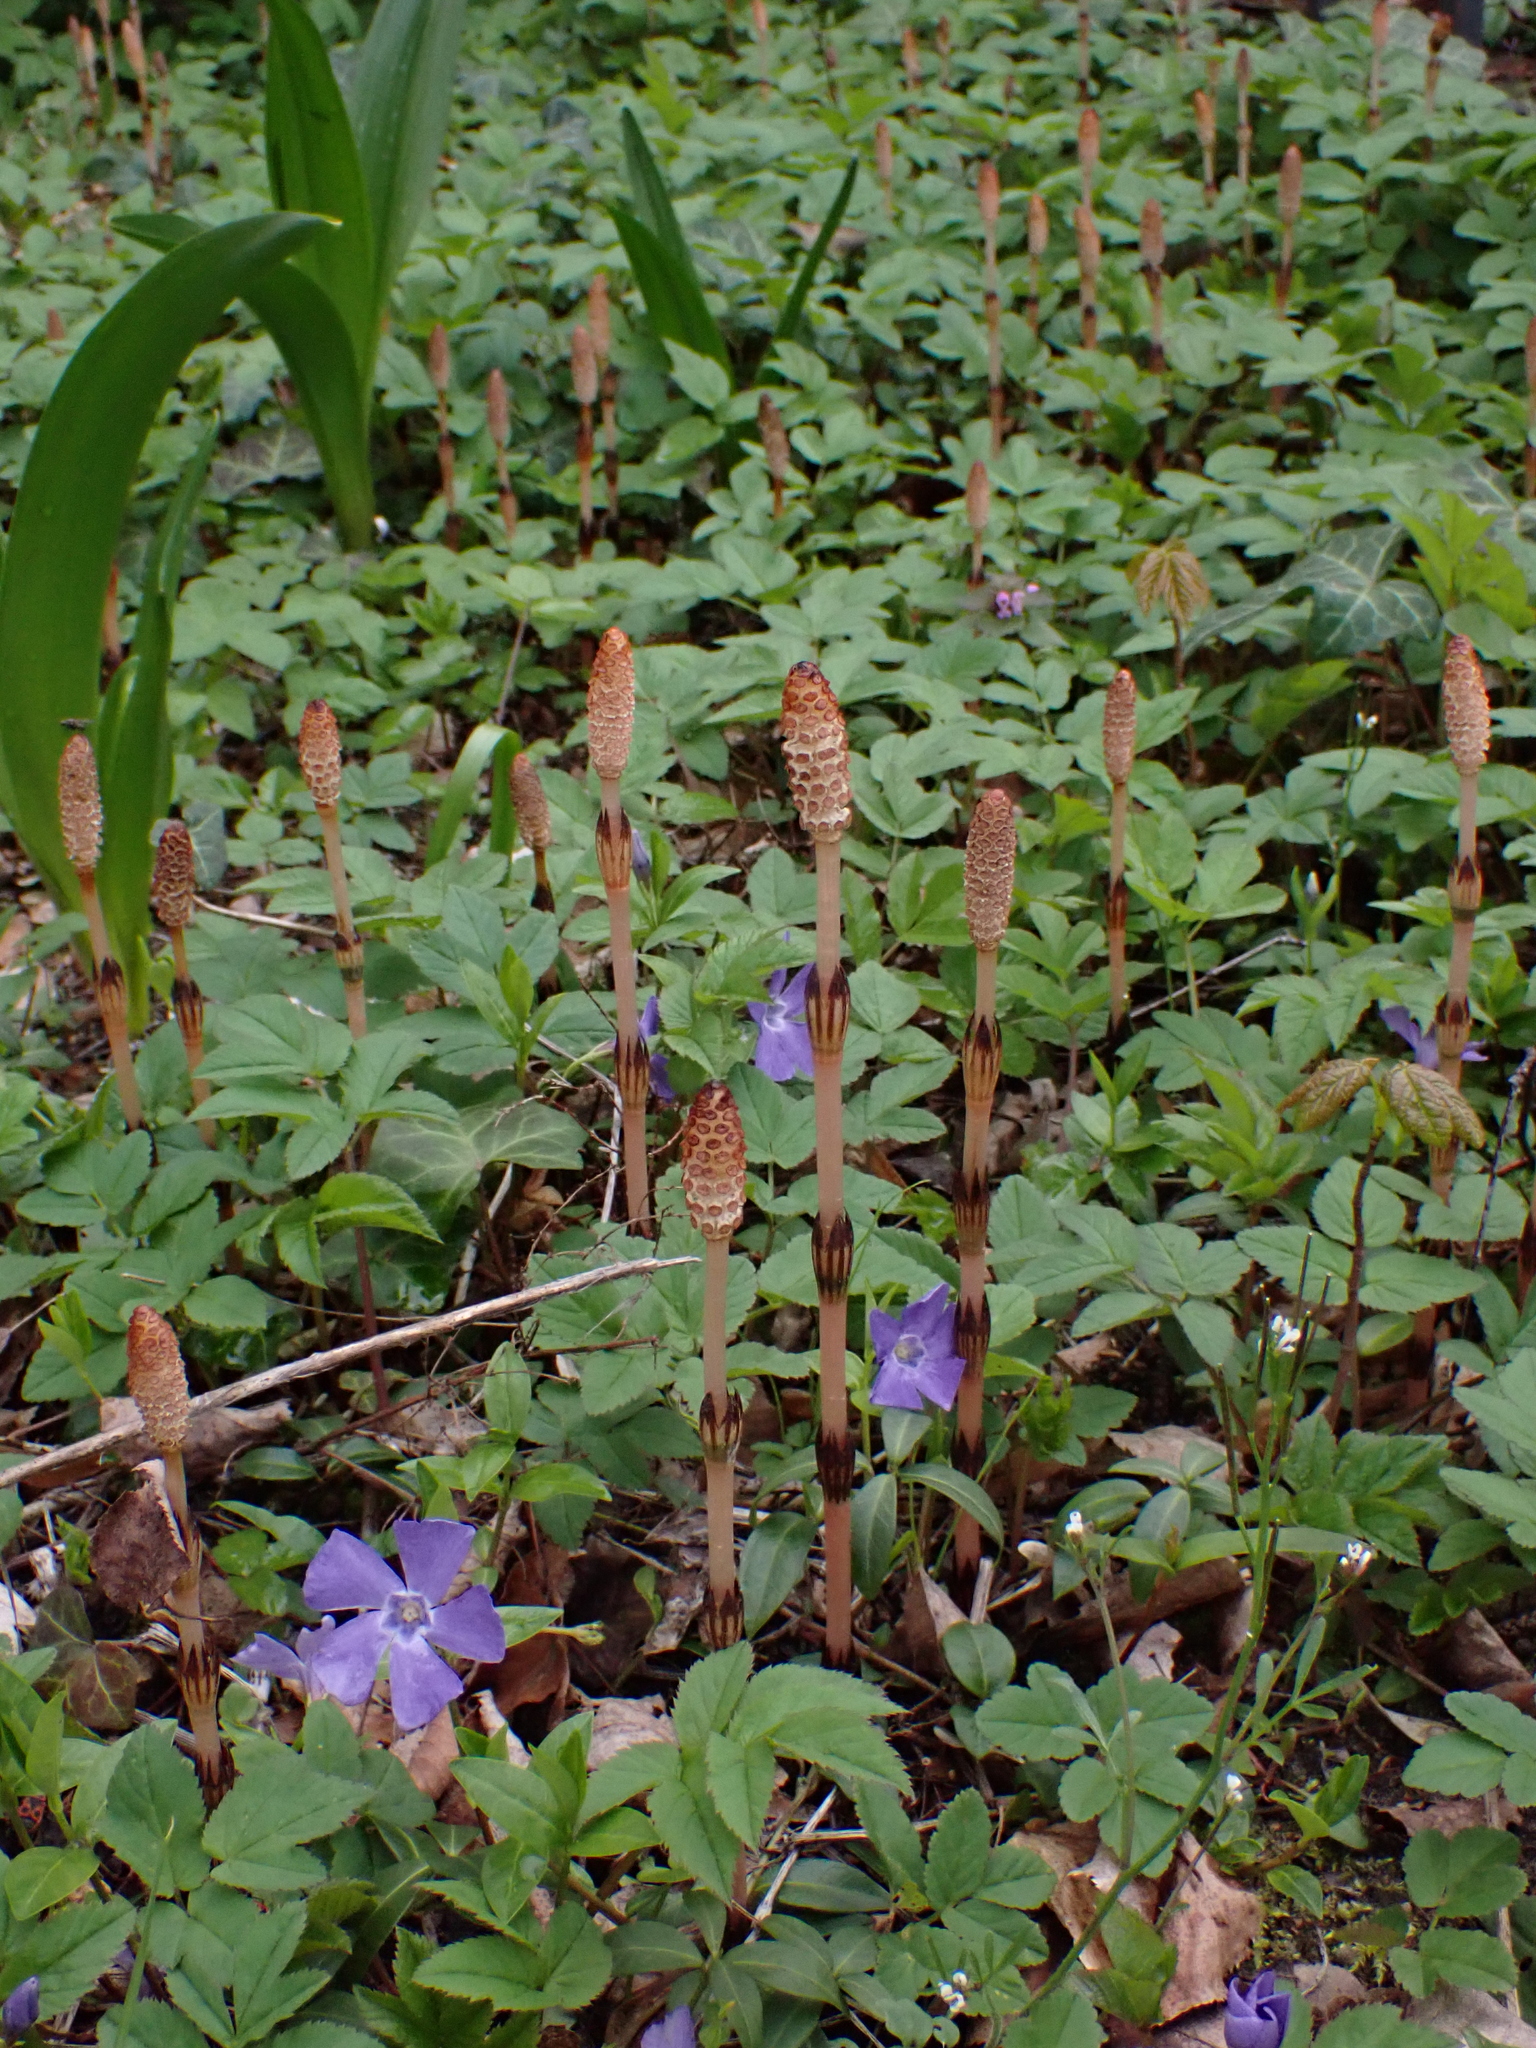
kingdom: Plantae
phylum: Tracheophyta
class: Polypodiopsida
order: Equisetales
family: Equisetaceae
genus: Equisetum
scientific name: Equisetum arvense
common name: Field horsetail
